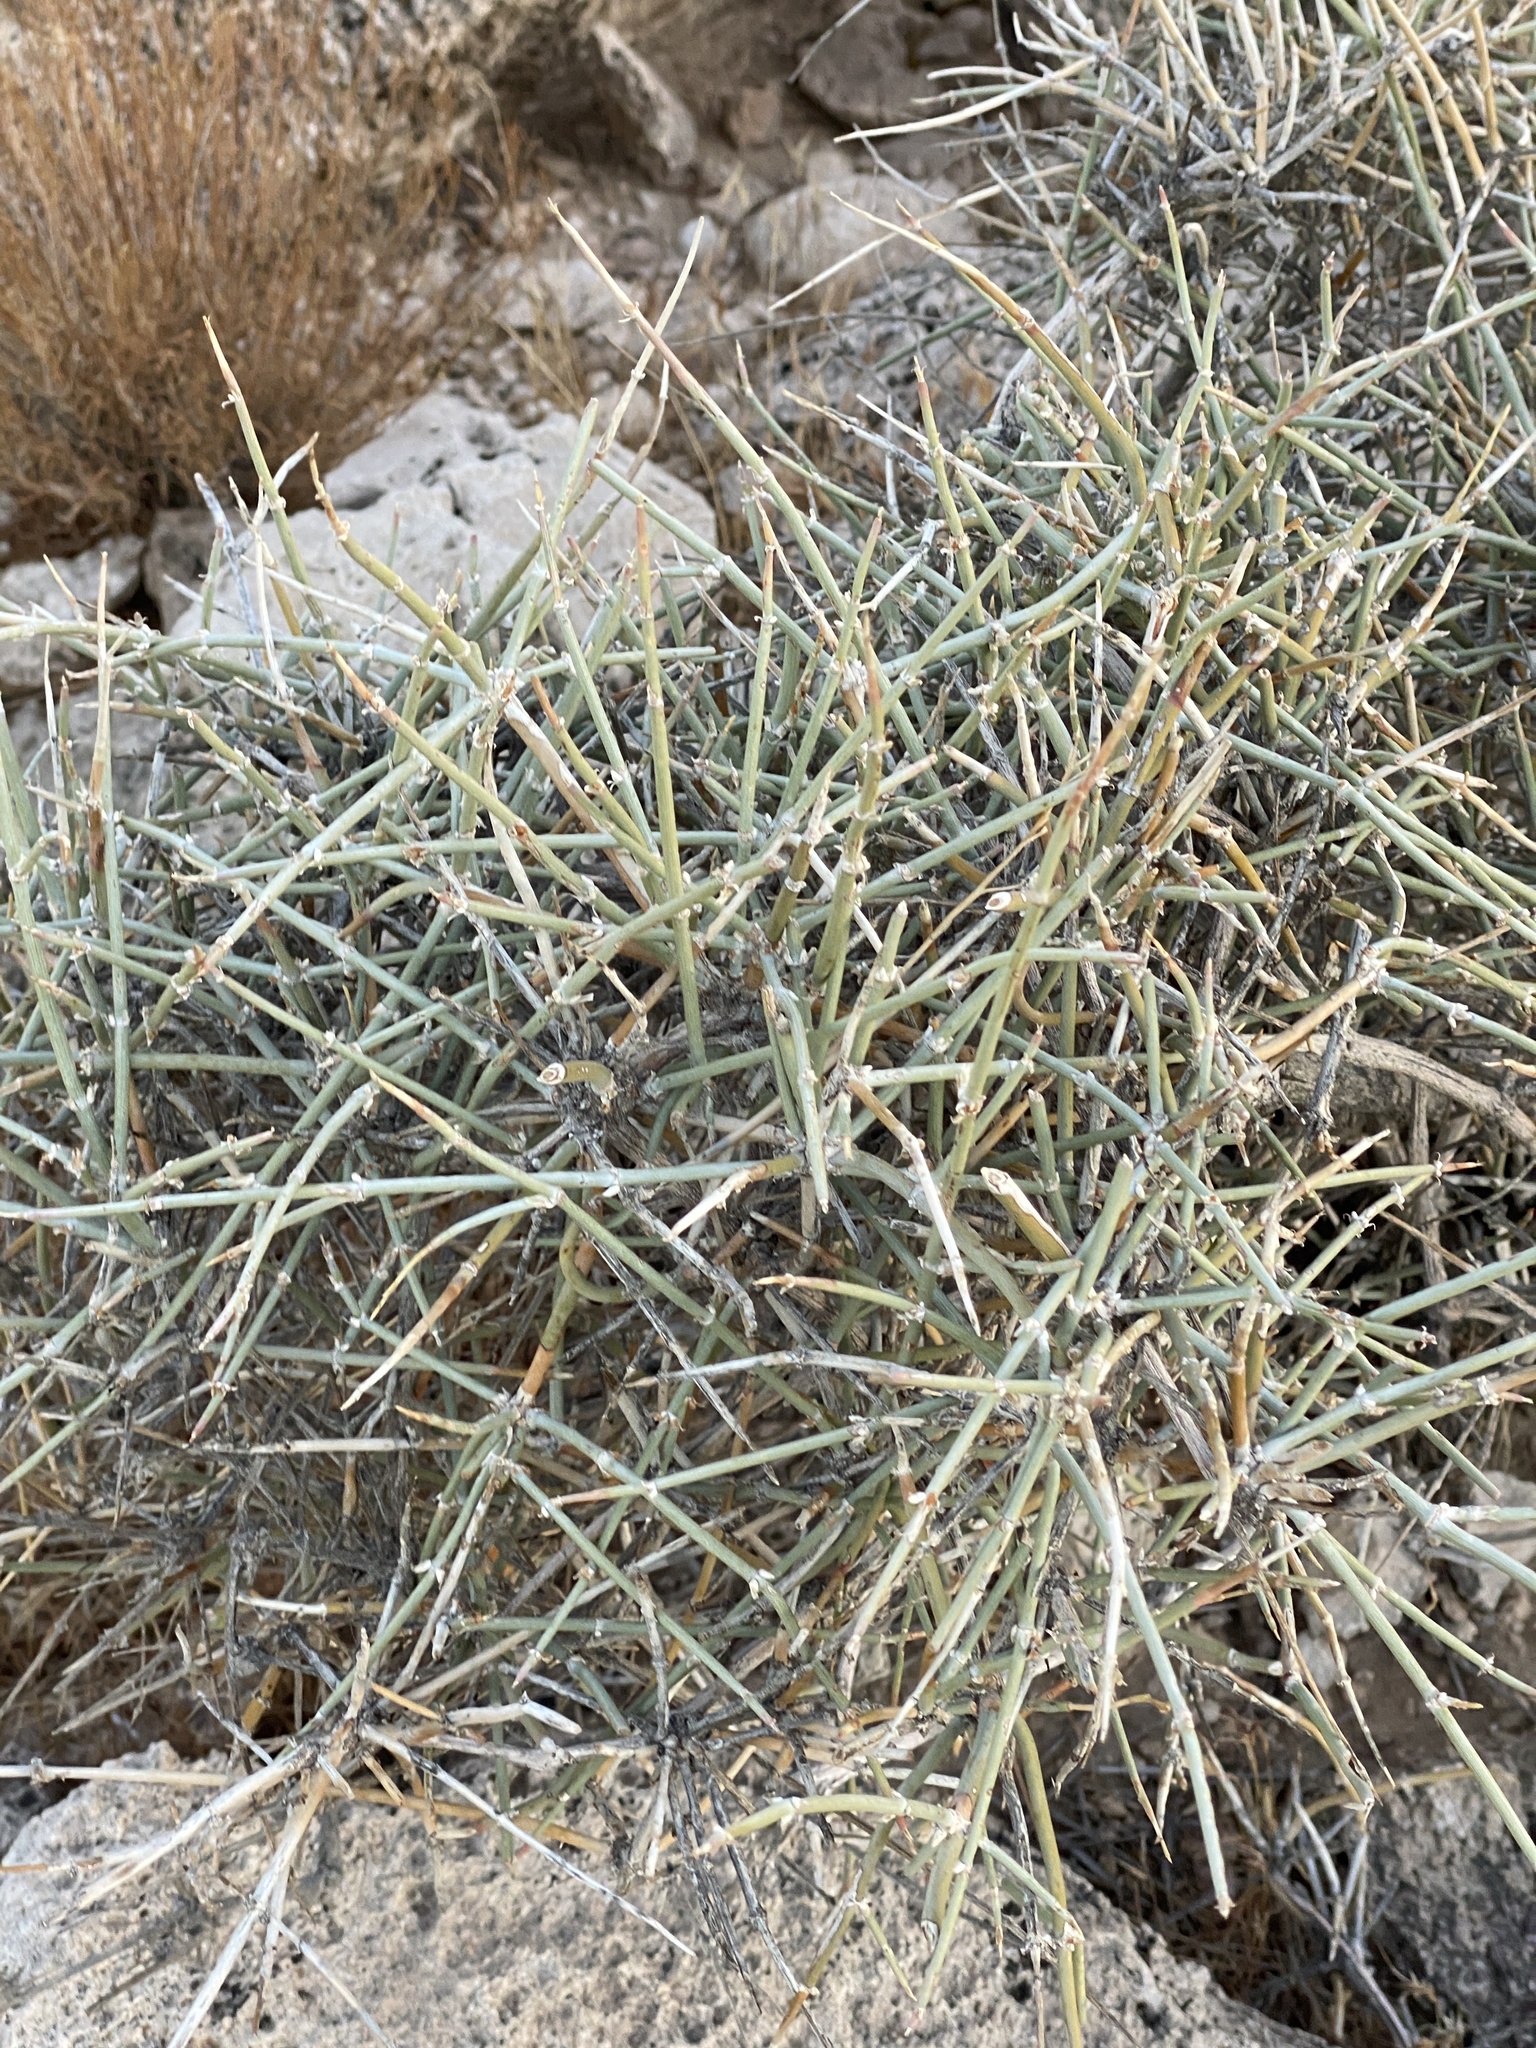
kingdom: Plantae
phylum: Tracheophyta
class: Gnetopsida
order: Ephedrales
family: Ephedraceae
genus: Ephedra
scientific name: Ephedra nevadensis
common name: Gray ephedra
